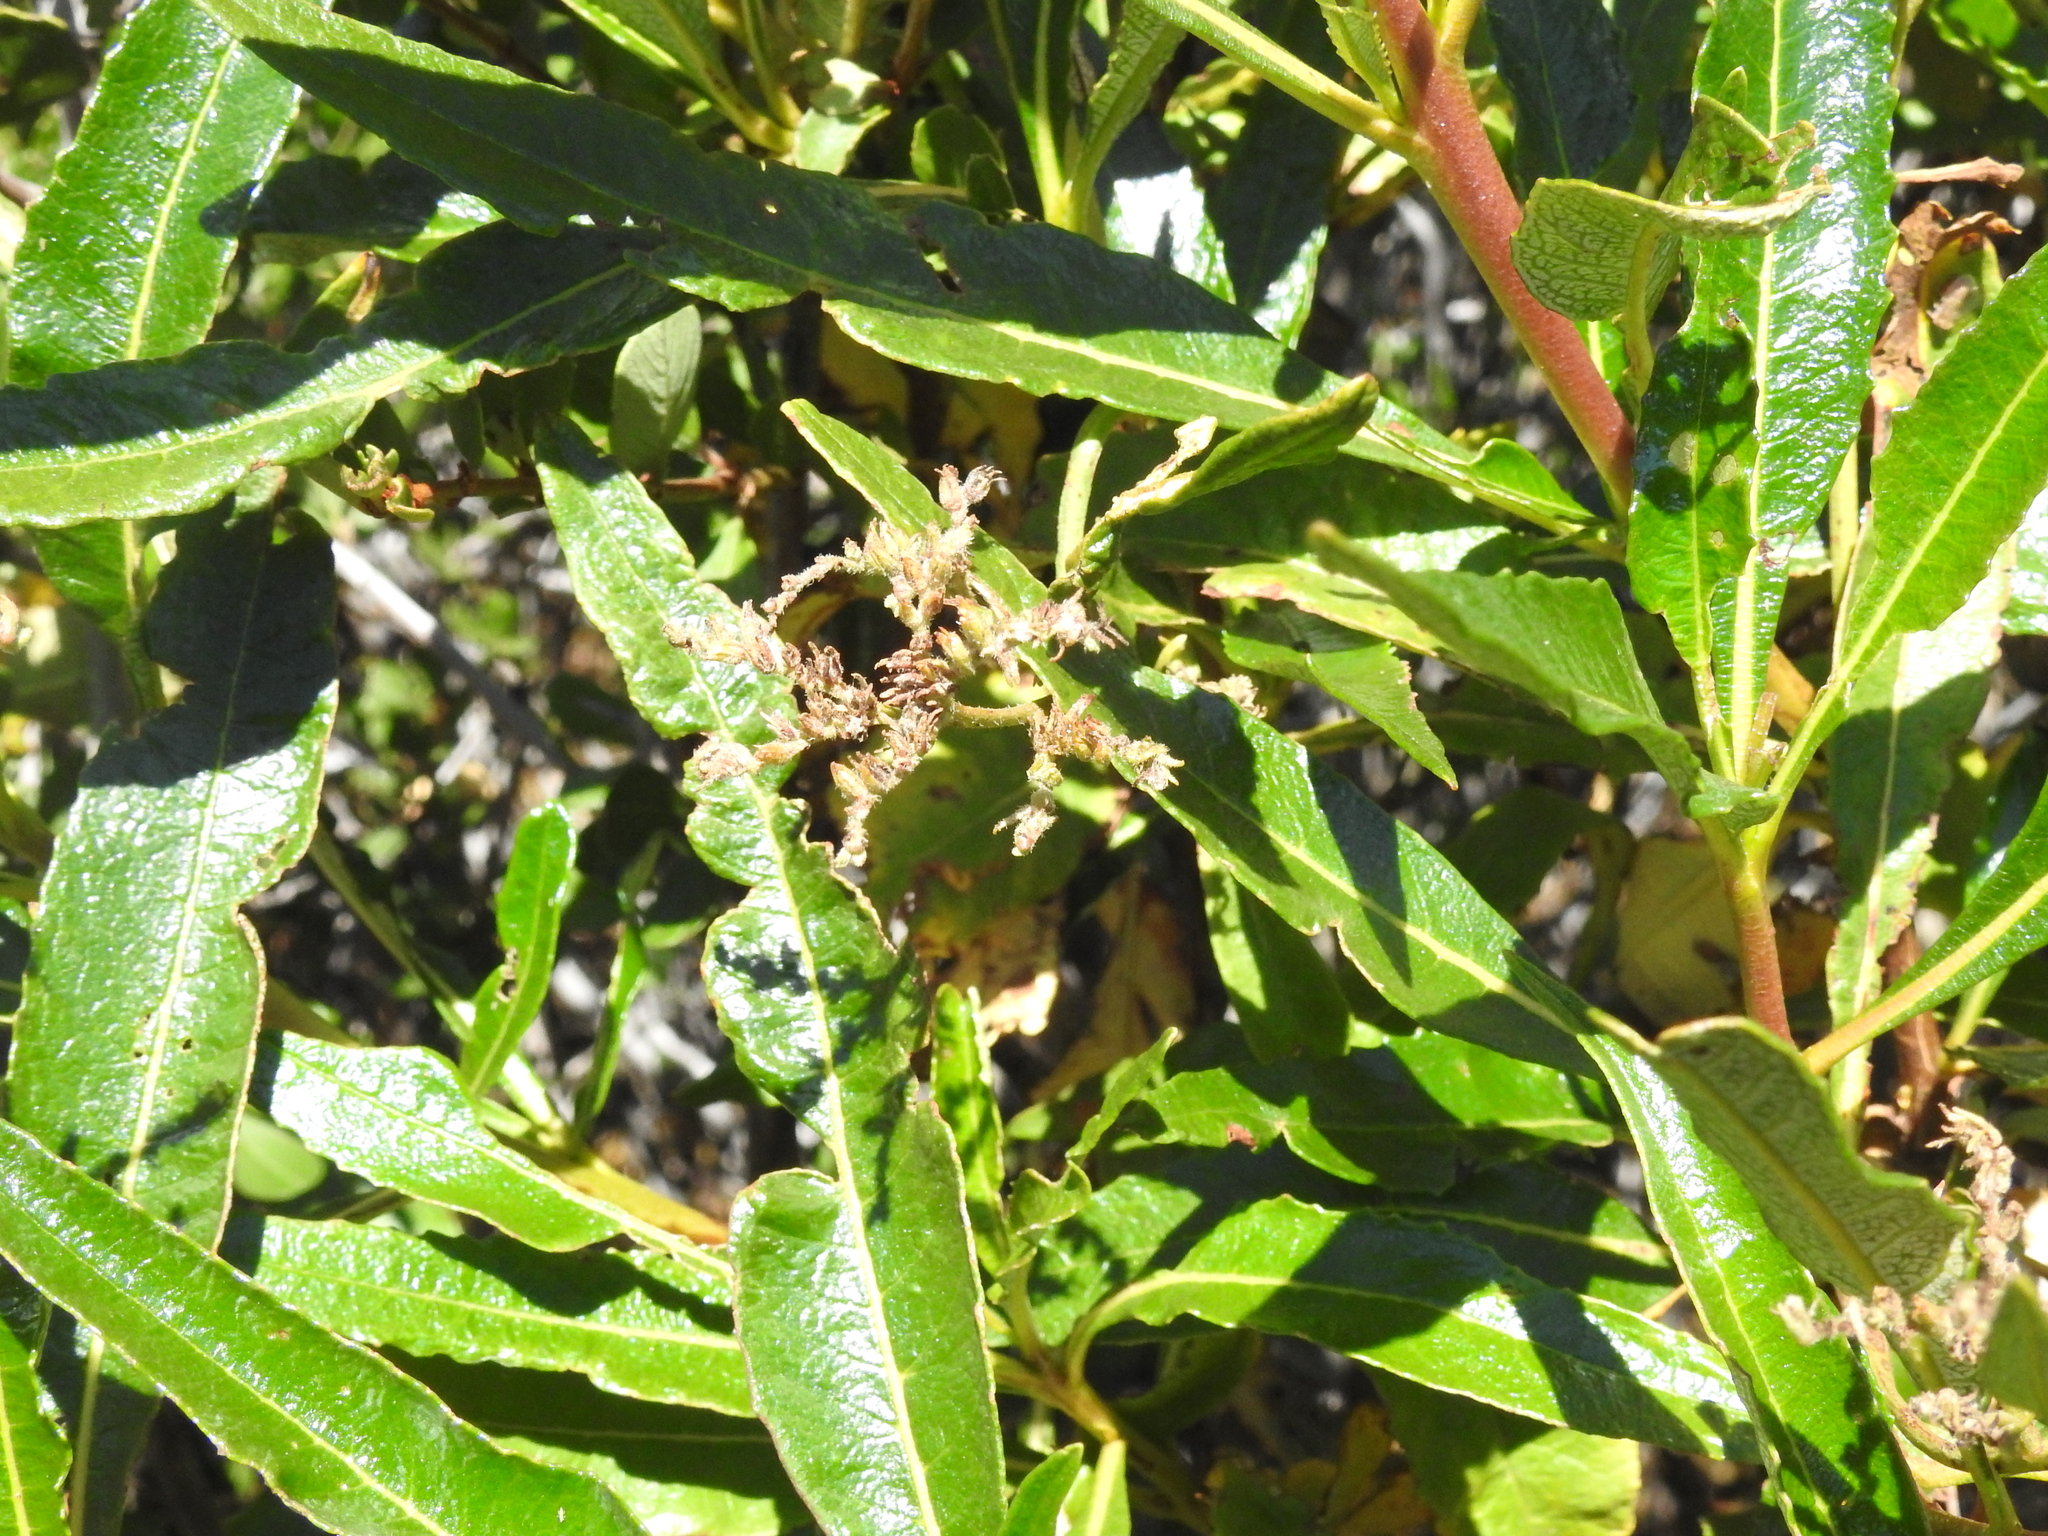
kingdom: Plantae
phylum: Tracheophyta
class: Magnoliopsida
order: Boraginales
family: Namaceae
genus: Eriodictyon
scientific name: Eriodictyon californicum
